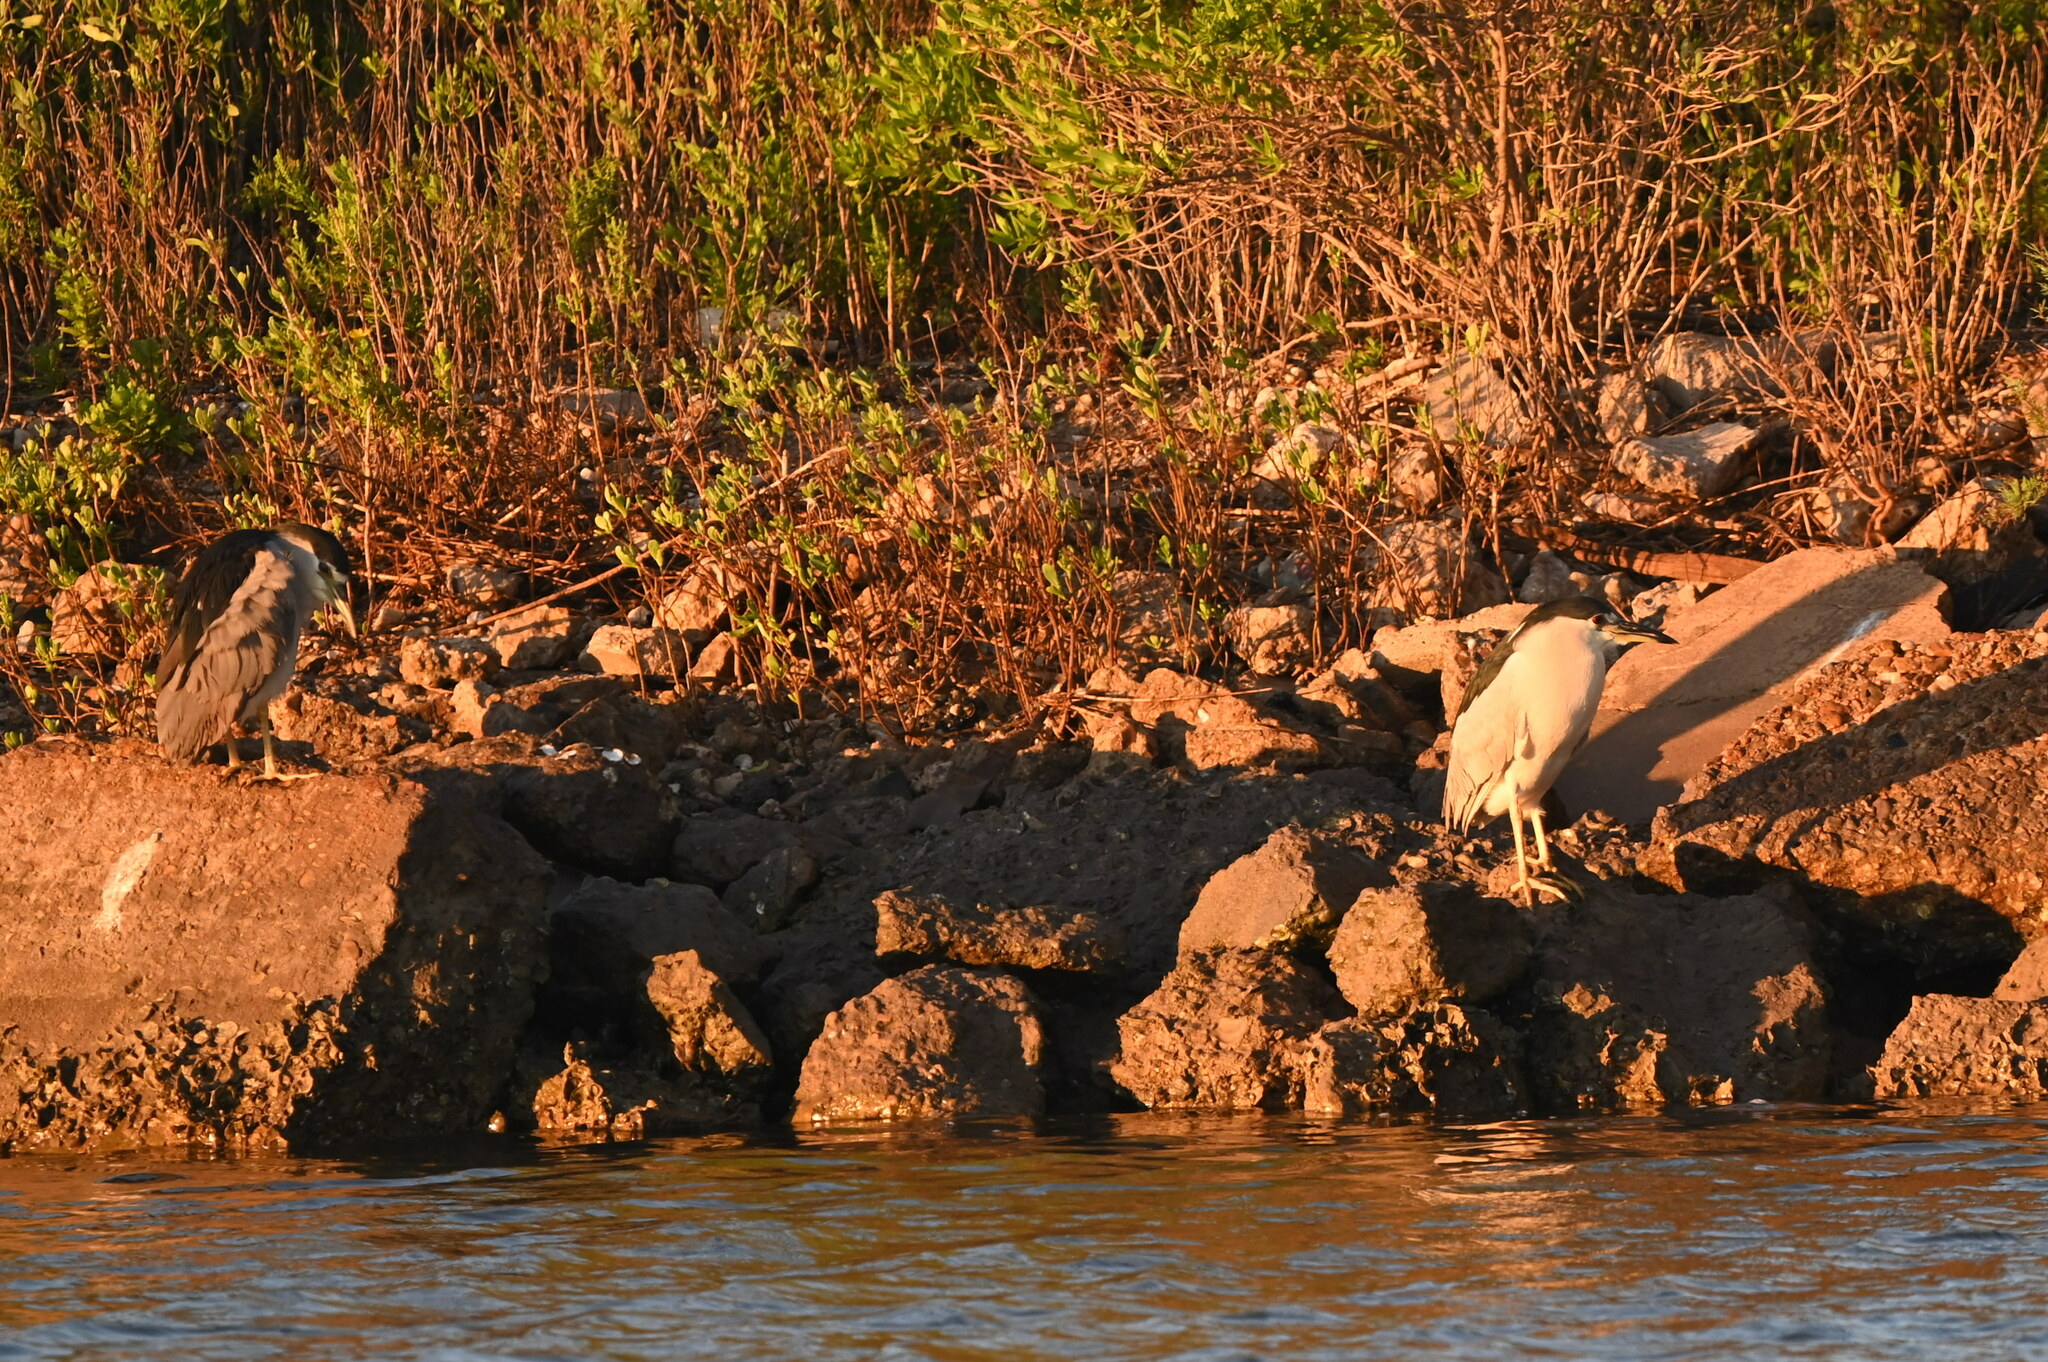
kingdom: Animalia
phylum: Chordata
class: Aves
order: Pelecaniformes
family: Ardeidae
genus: Nycticorax
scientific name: Nycticorax nycticorax
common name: Black-crowned night heron
